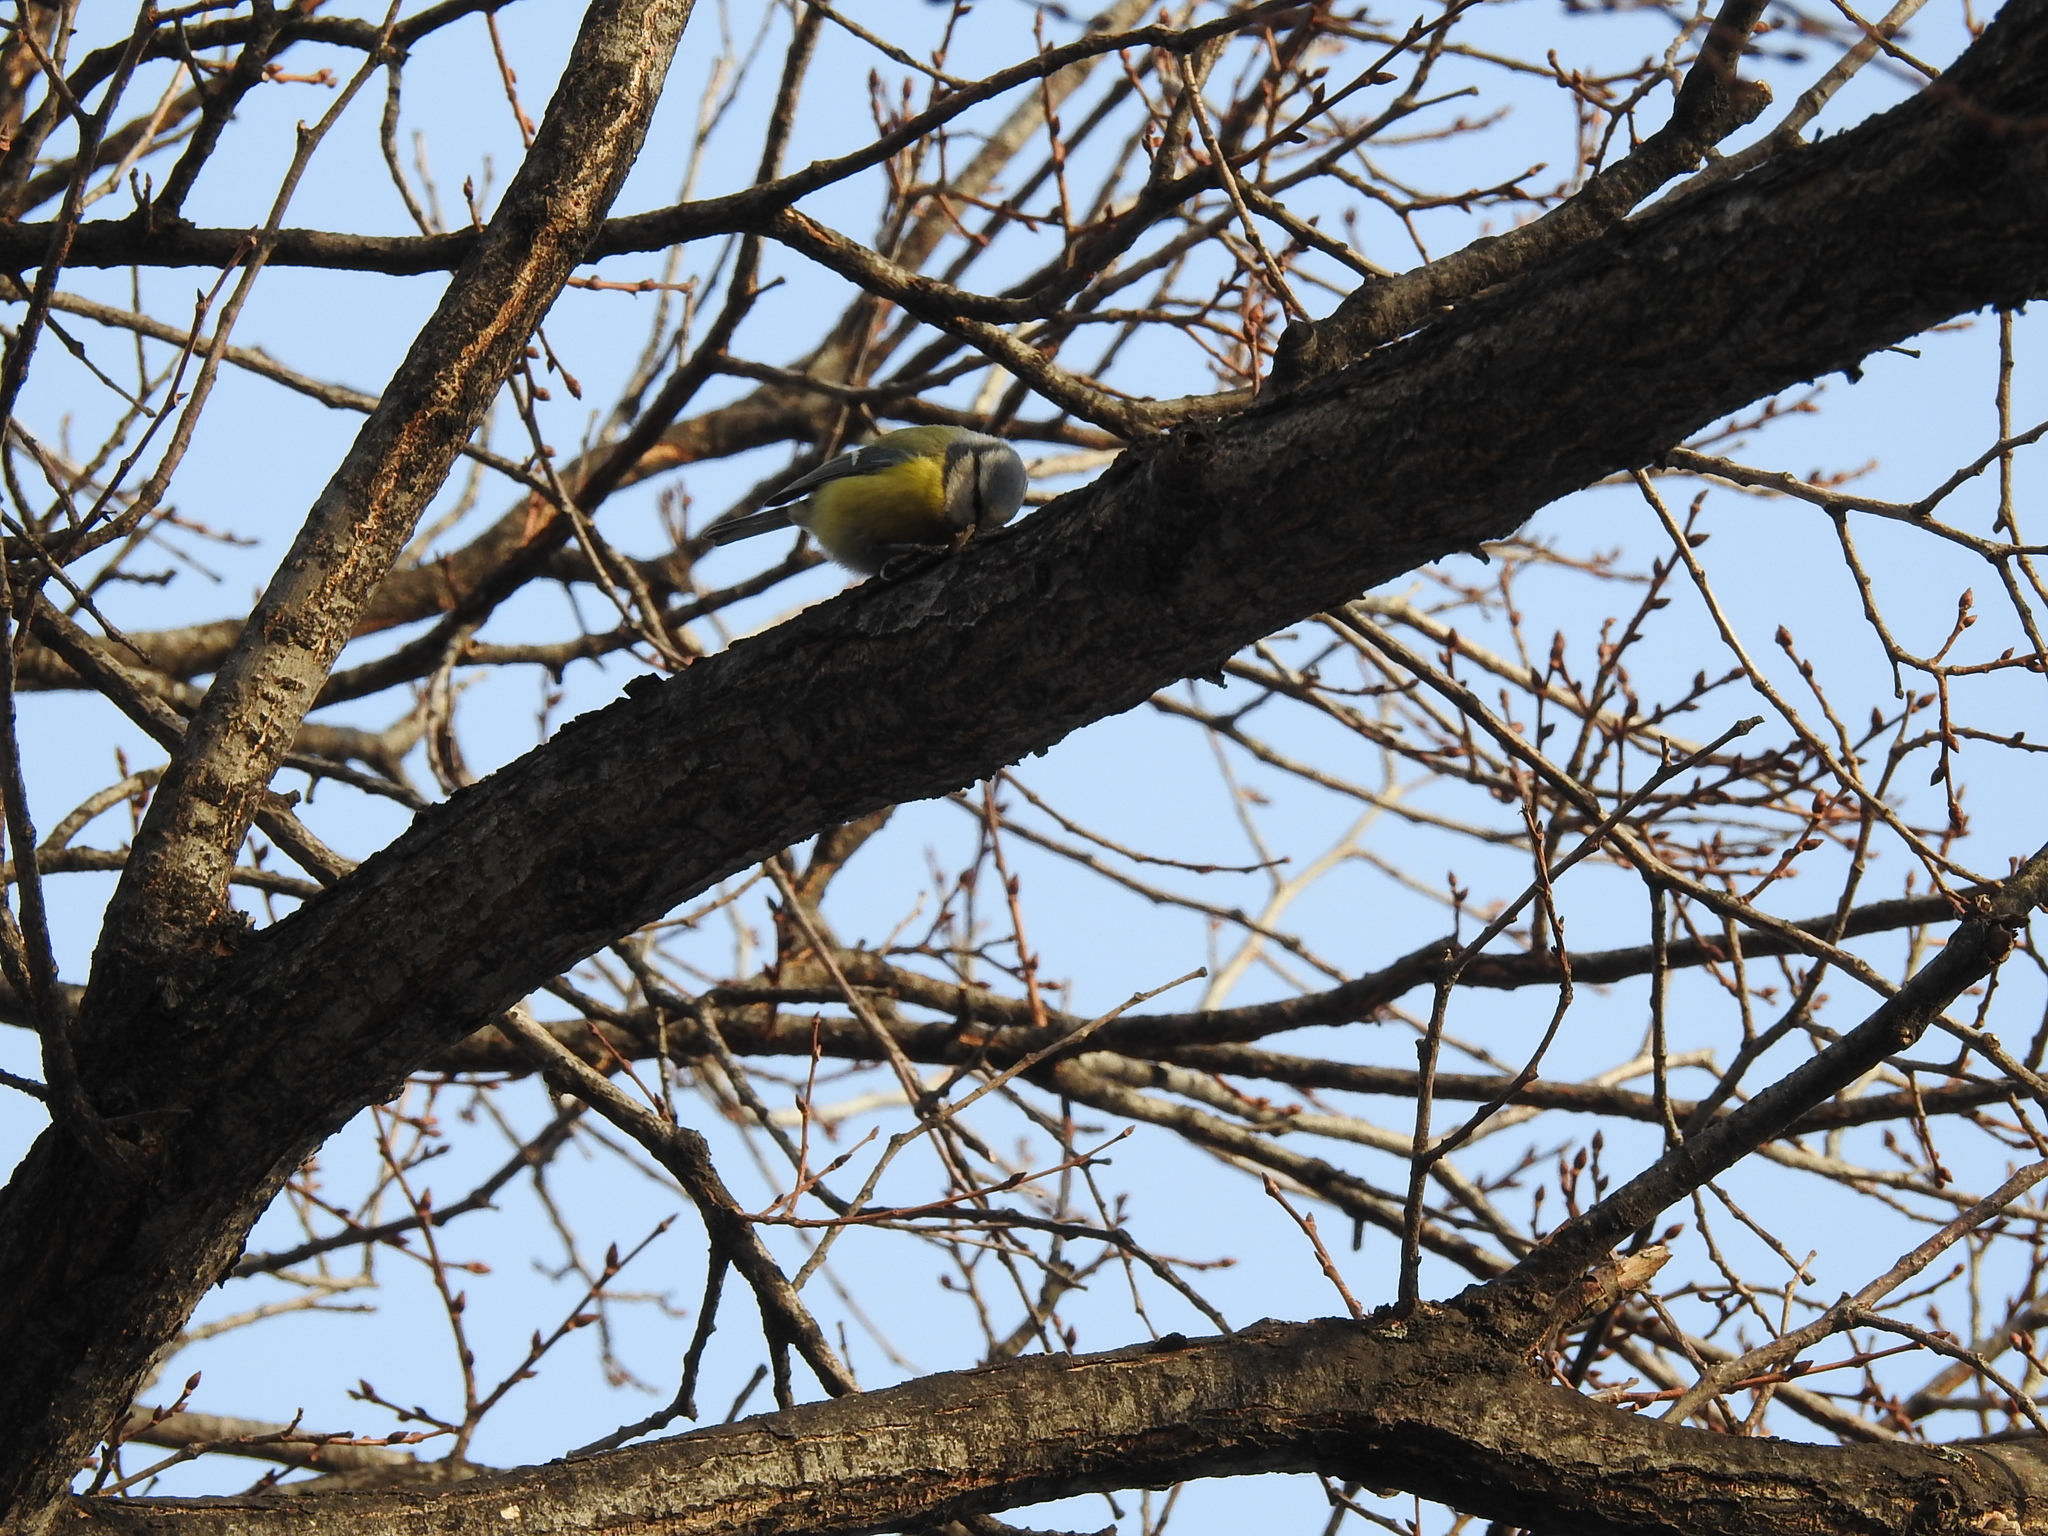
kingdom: Animalia
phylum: Chordata
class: Aves
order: Passeriformes
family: Paridae
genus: Cyanistes
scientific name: Cyanistes caeruleus
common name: Eurasian blue tit
